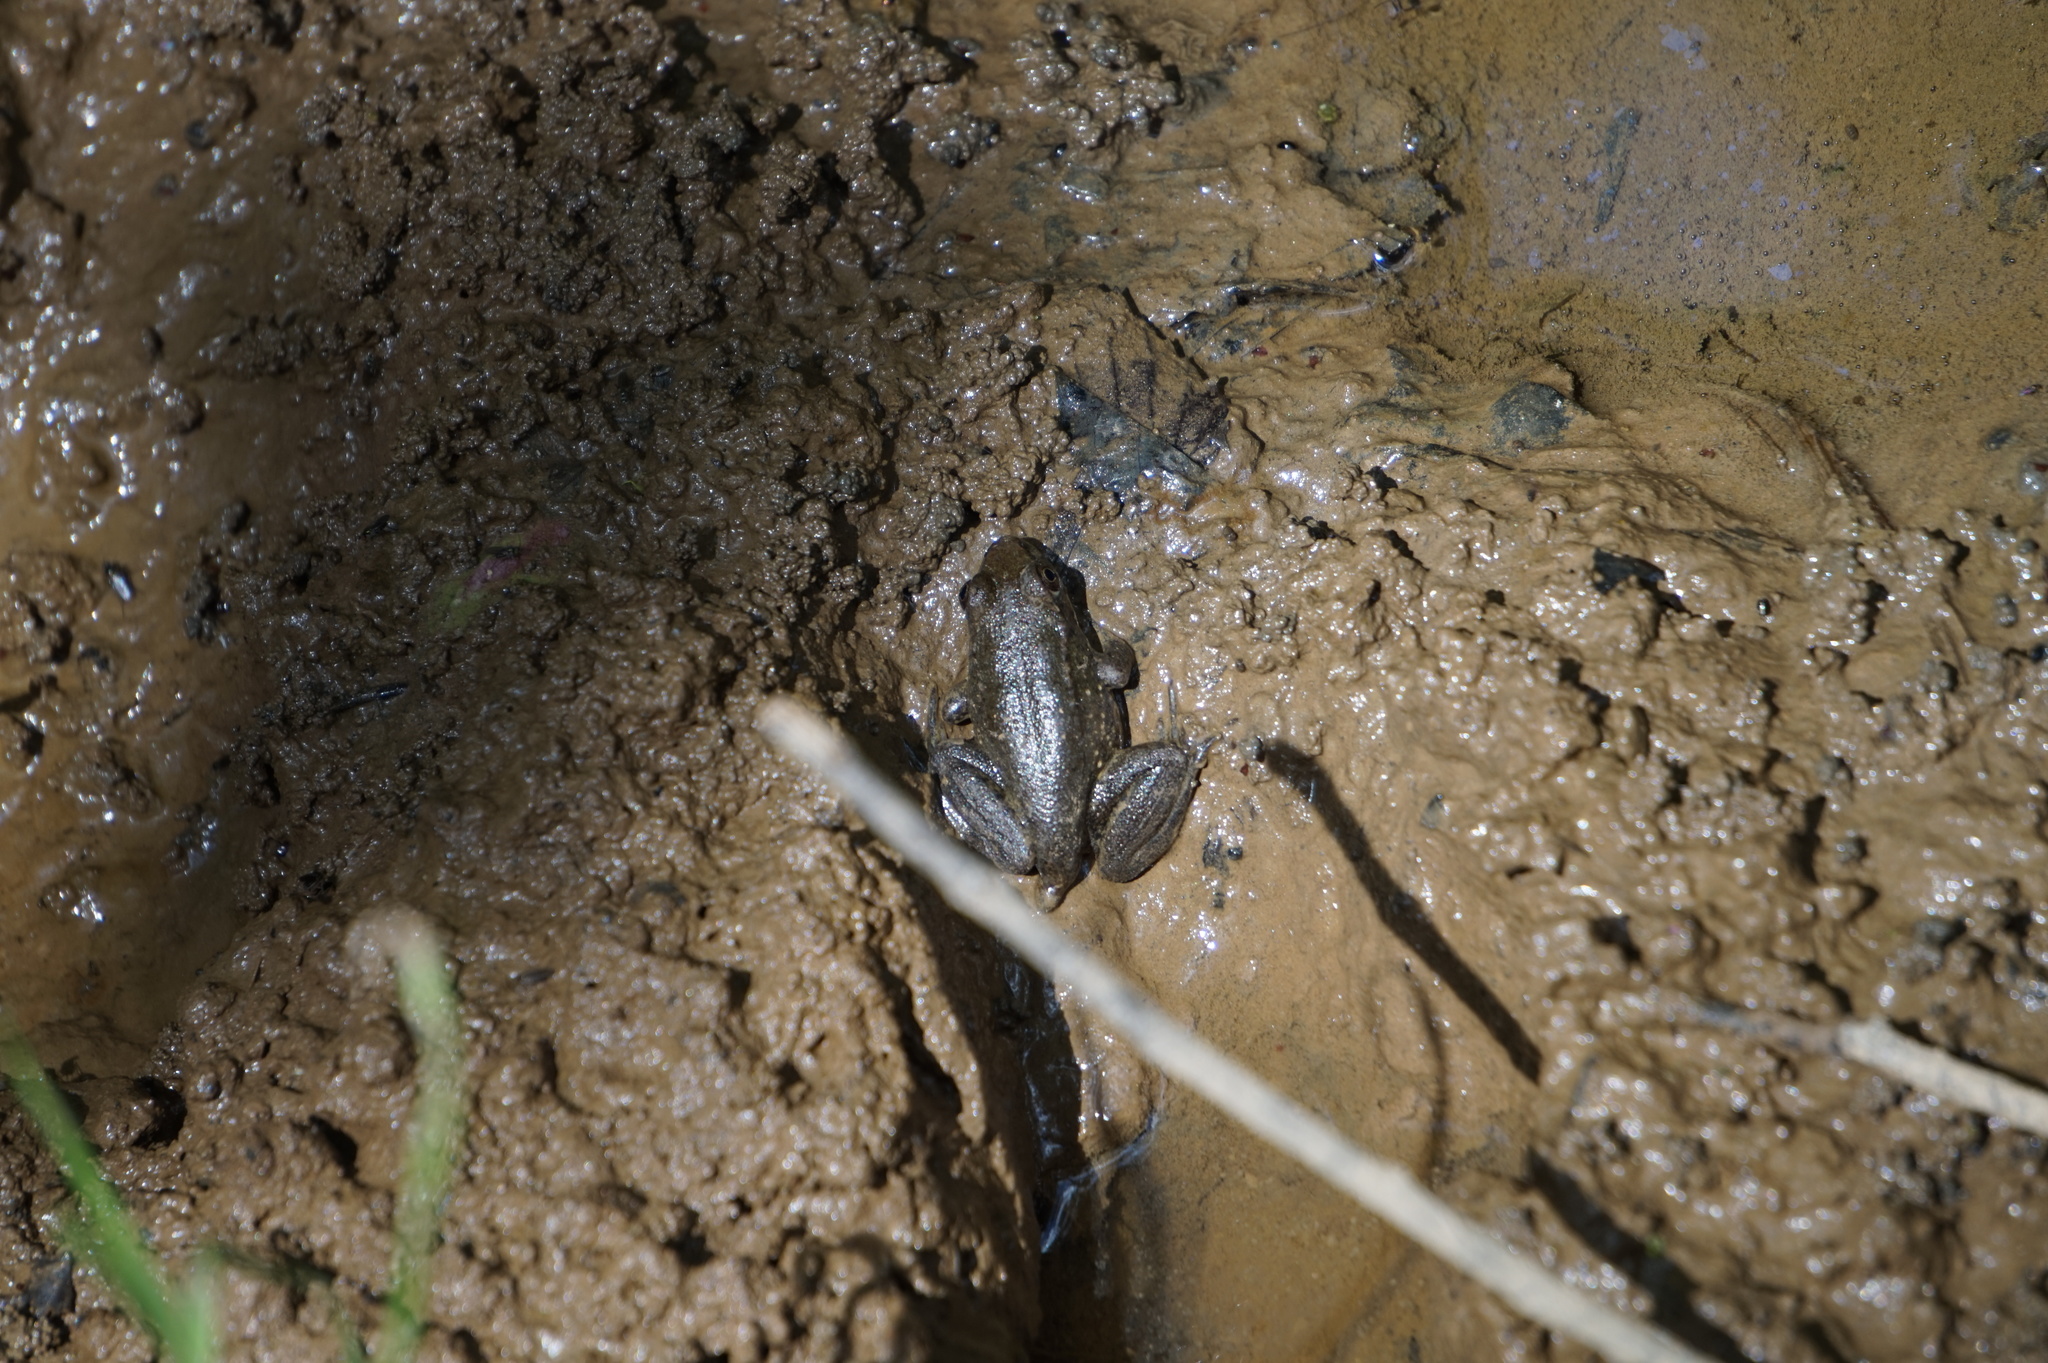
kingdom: Animalia
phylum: Chordata
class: Amphibia
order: Anura
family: Ranidae
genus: Lithobates
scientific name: Lithobates clamitans
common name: Green frog
